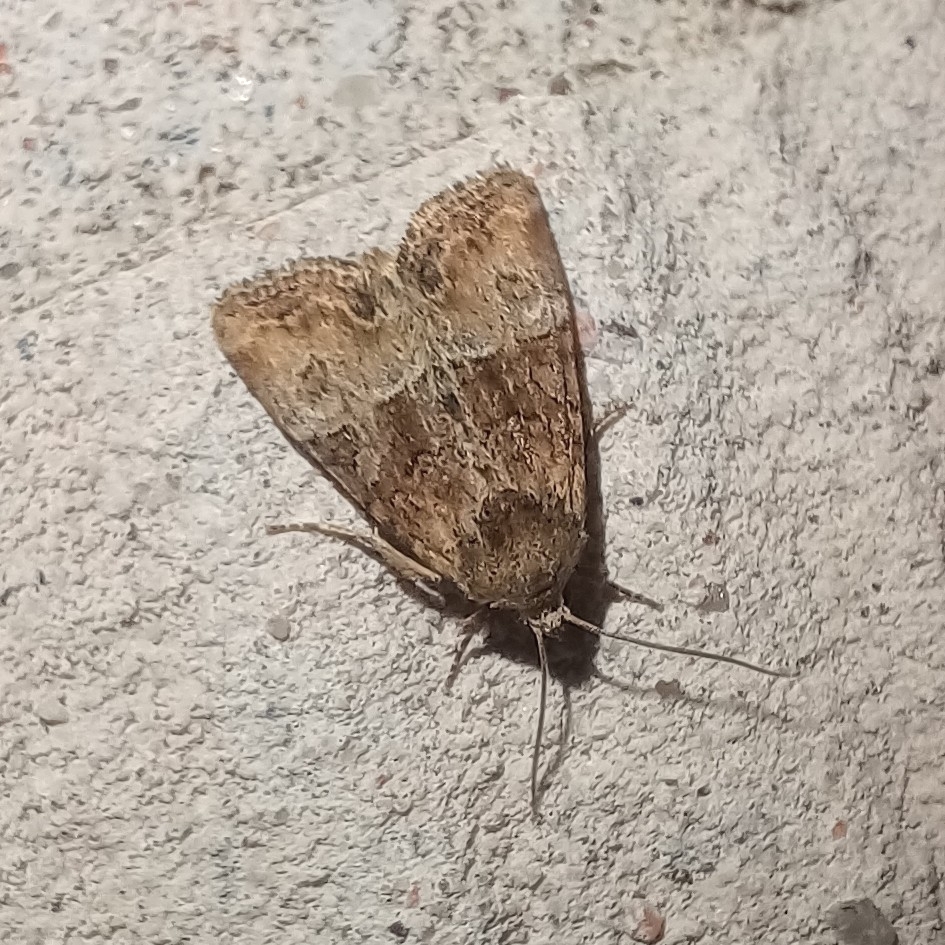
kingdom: Animalia
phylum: Arthropoda
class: Insecta
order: Lepidoptera
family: Noctuidae
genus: Mesoligia
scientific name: Mesoligia furuncula
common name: Cloaked minor
